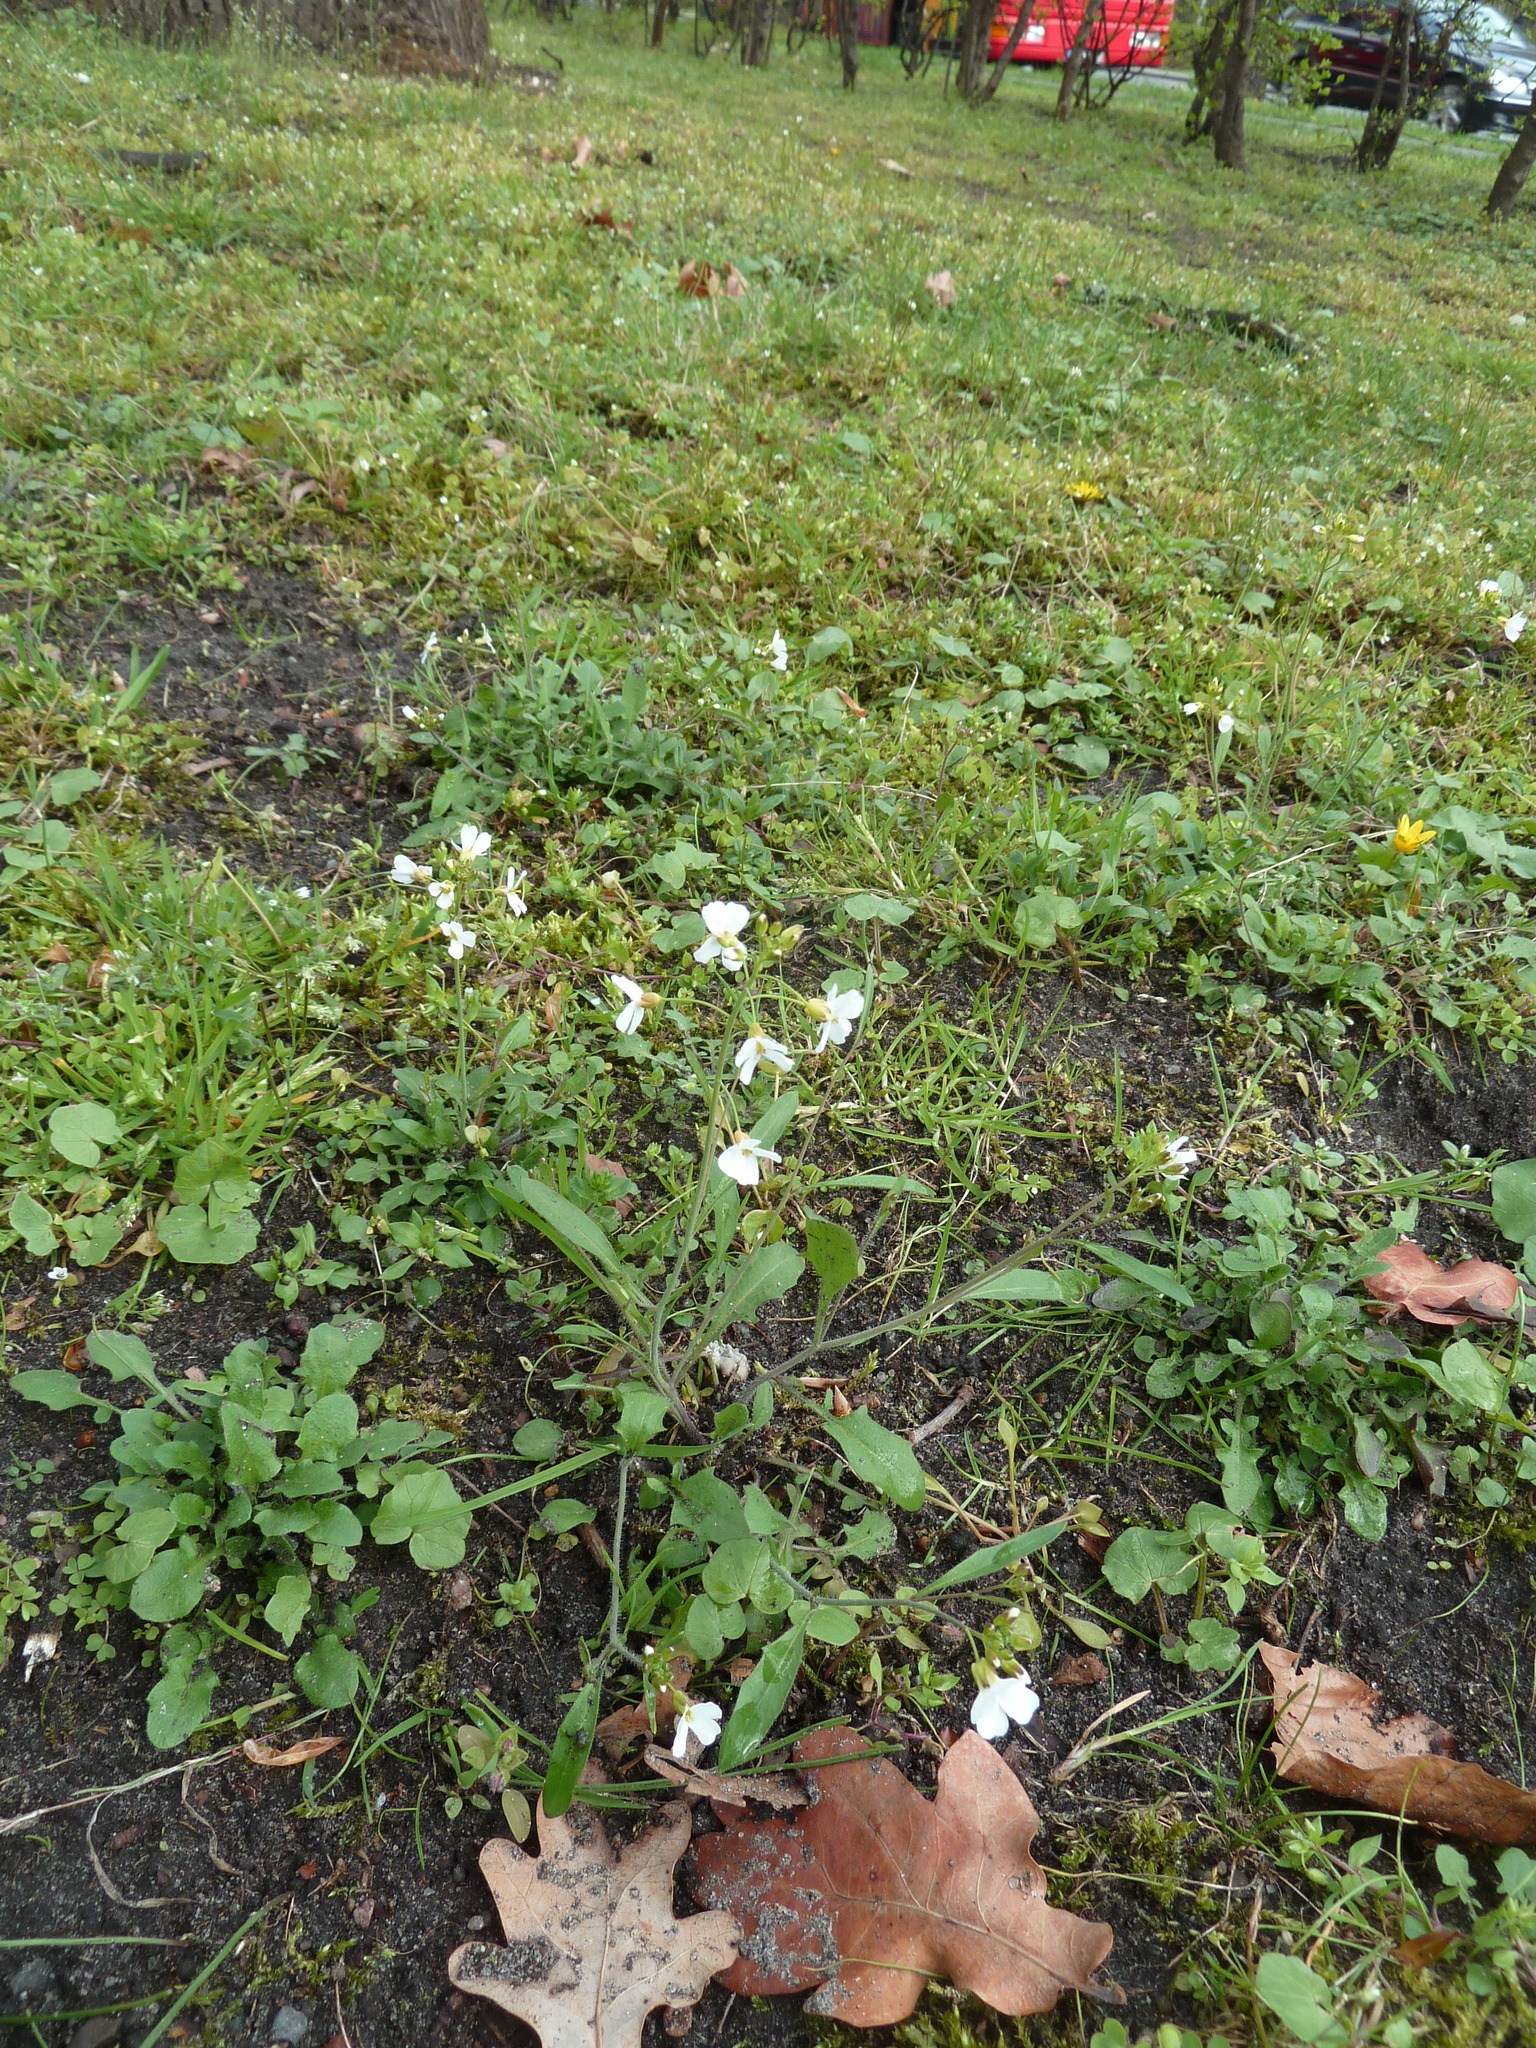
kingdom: Plantae
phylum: Tracheophyta
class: Magnoliopsida
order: Brassicales
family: Brassicaceae
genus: Arabidopsis
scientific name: Arabidopsis arenosa
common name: Sand rock-cress
